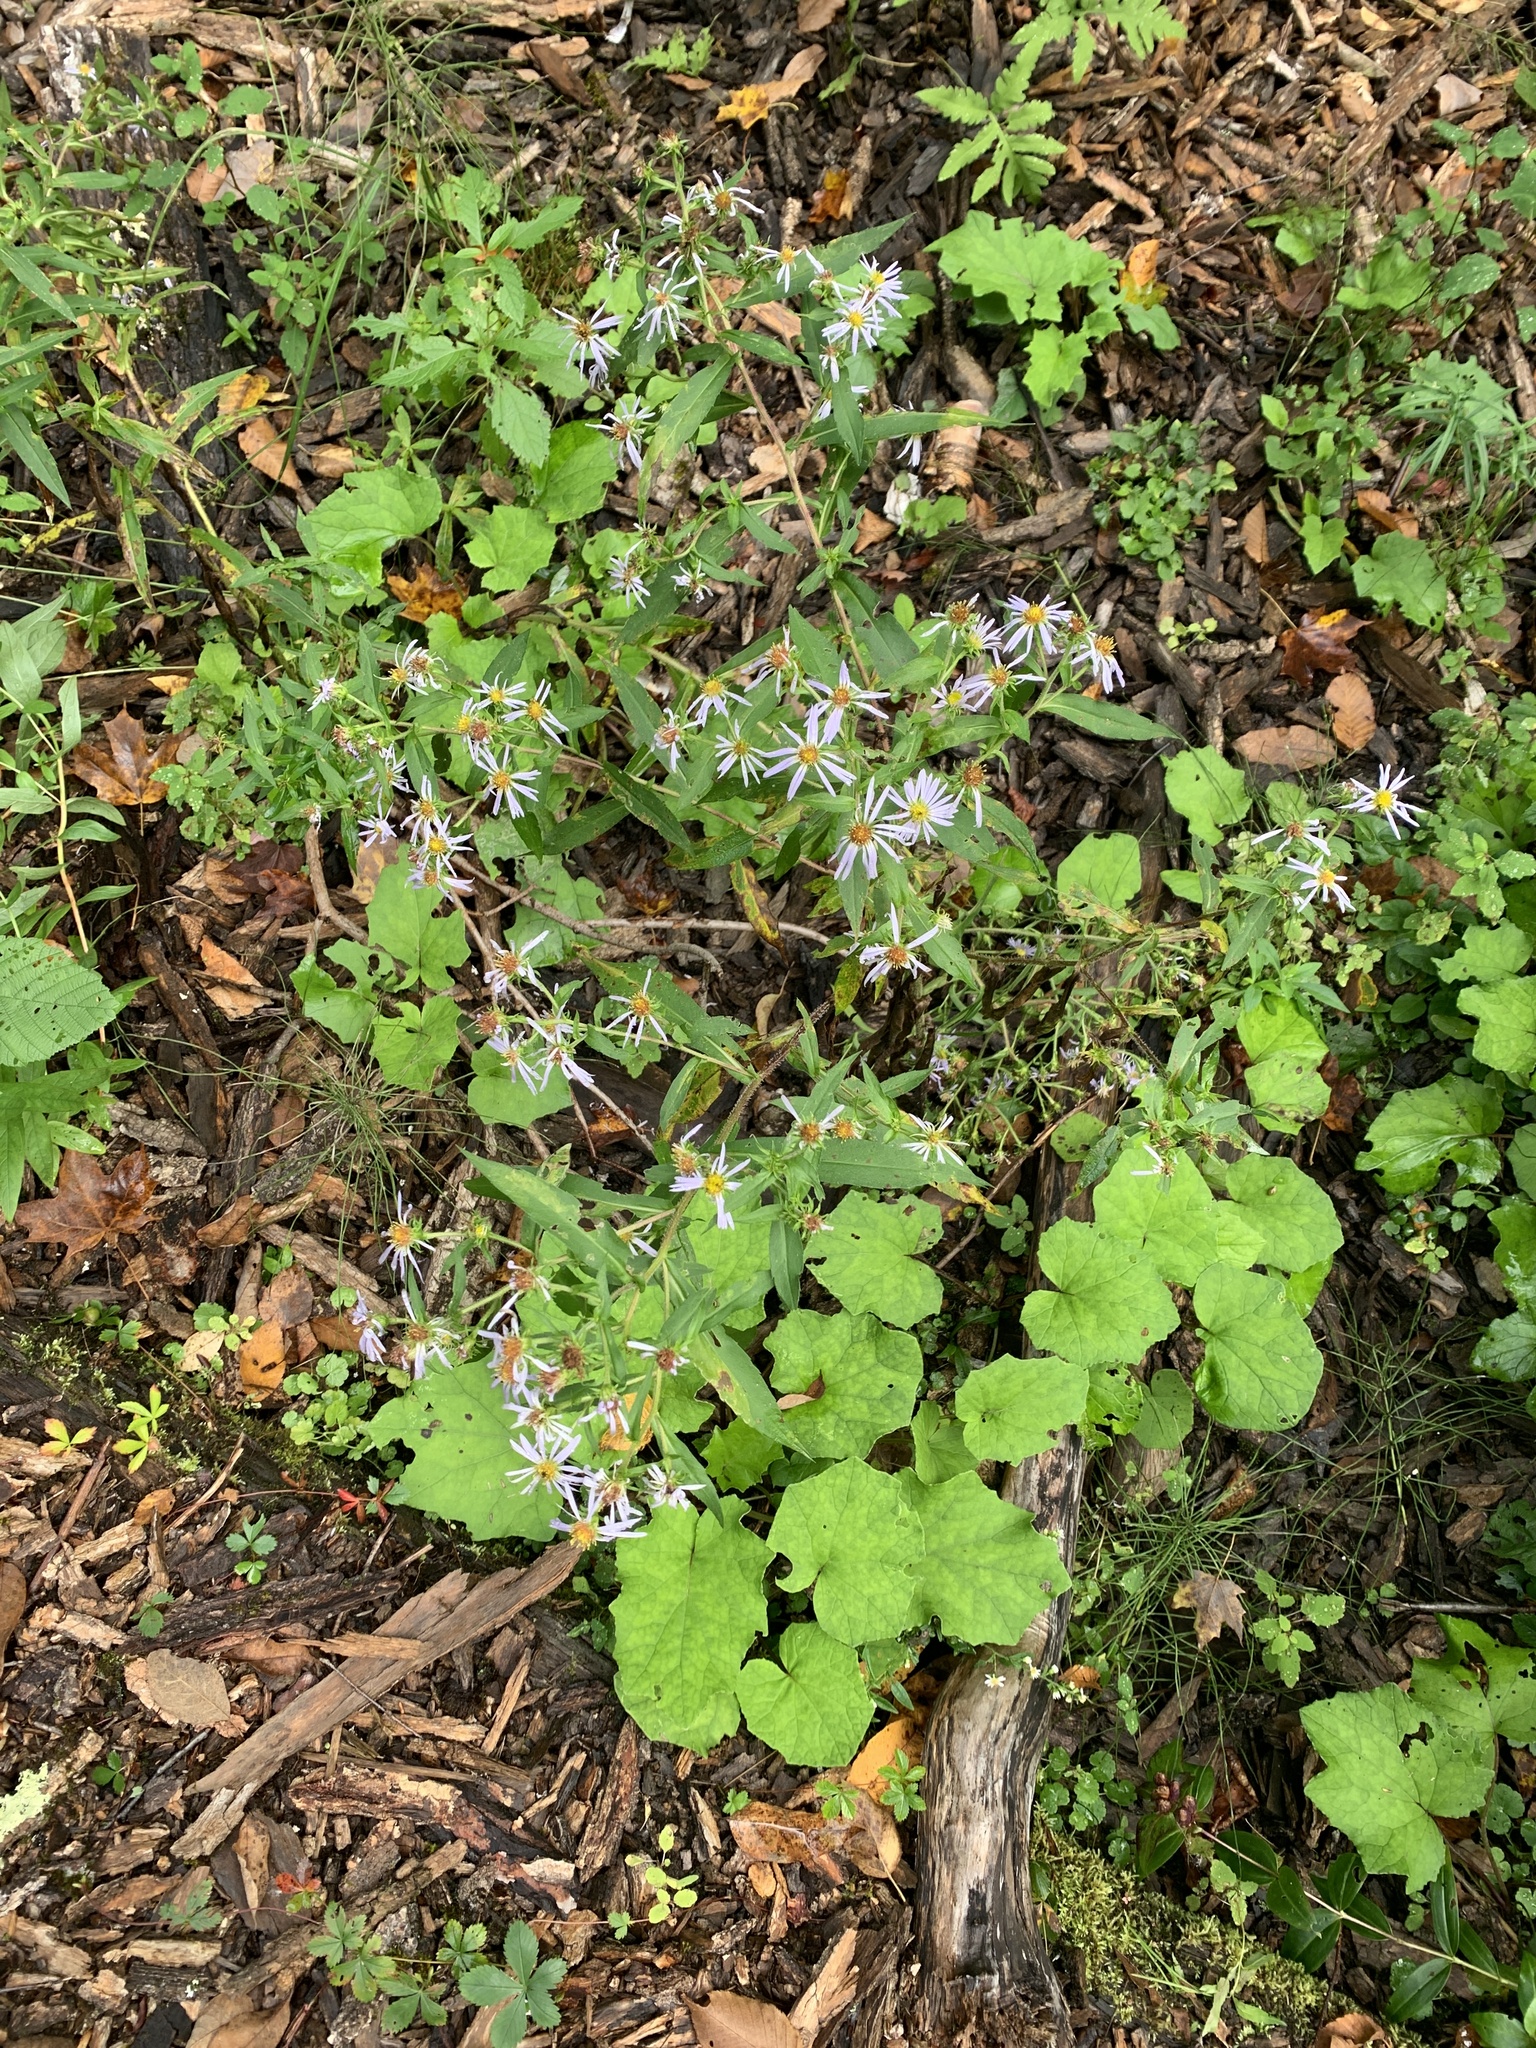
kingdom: Plantae
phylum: Tracheophyta
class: Magnoliopsida
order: Asterales
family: Asteraceae
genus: Symphyotrichum
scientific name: Symphyotrichum puniceum
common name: Bog aster
